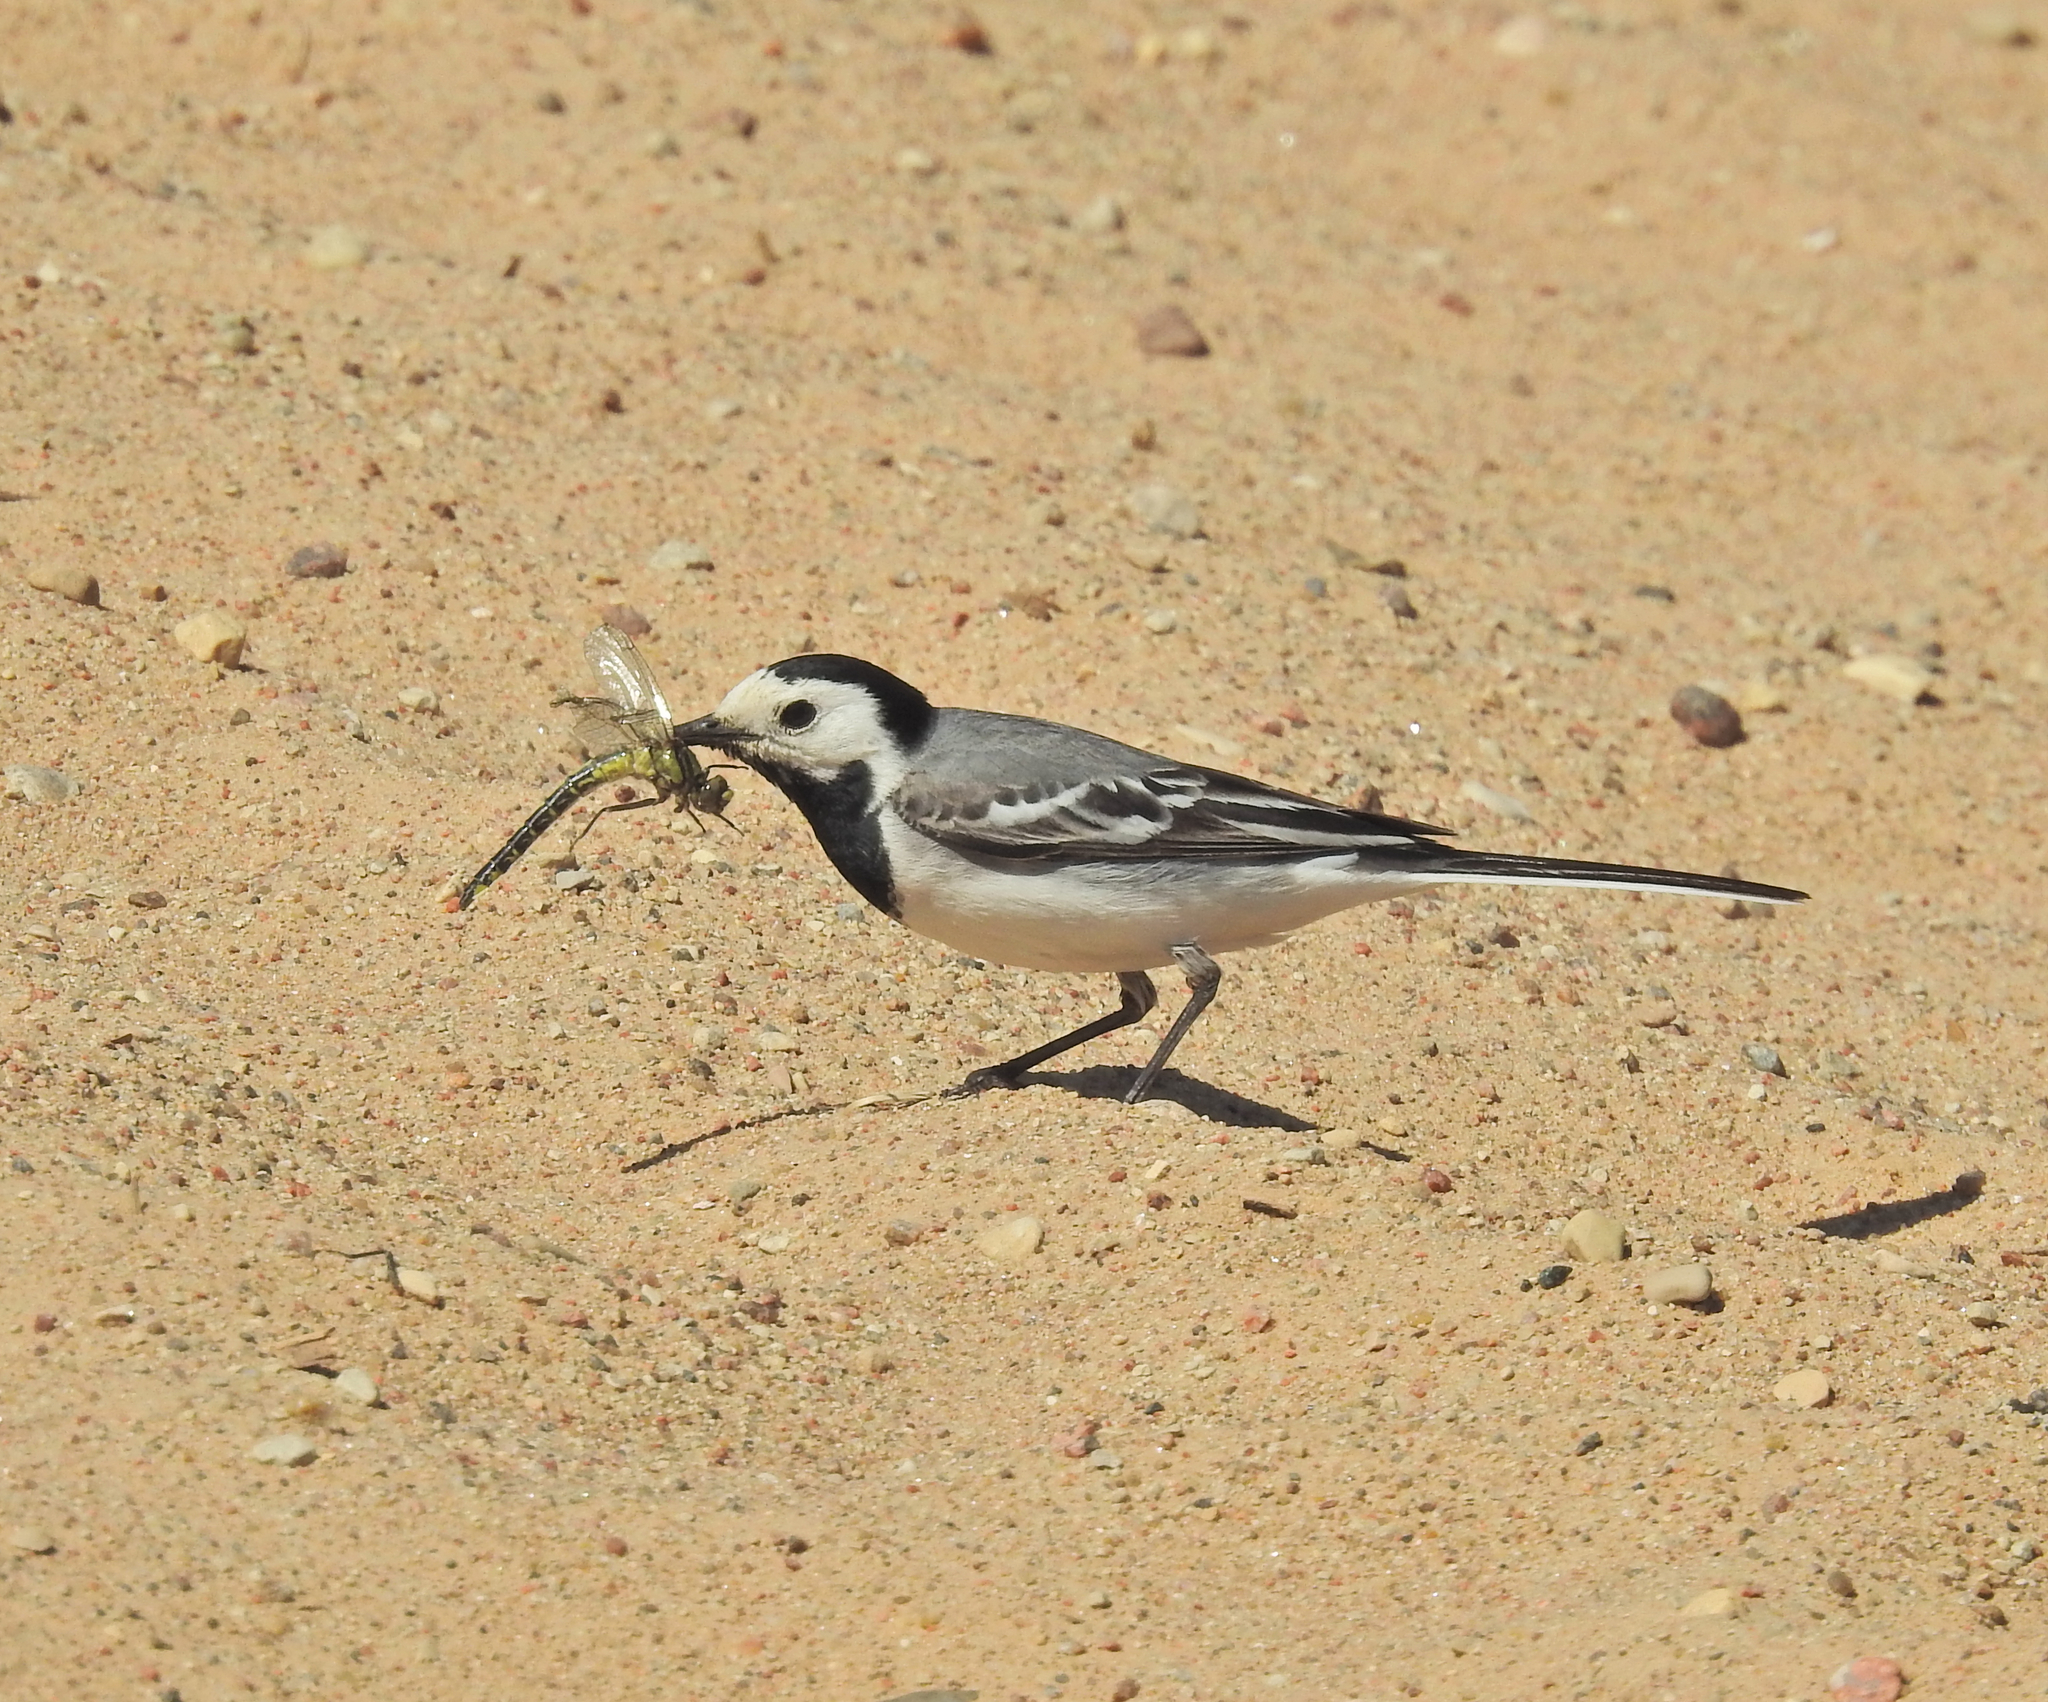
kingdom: Animalia
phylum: Arthropoda
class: Insecta
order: Odonata
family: Gomphidae
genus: Gomphus
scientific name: Gomphus vulgatissimus
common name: Club-tailed dragonfly
